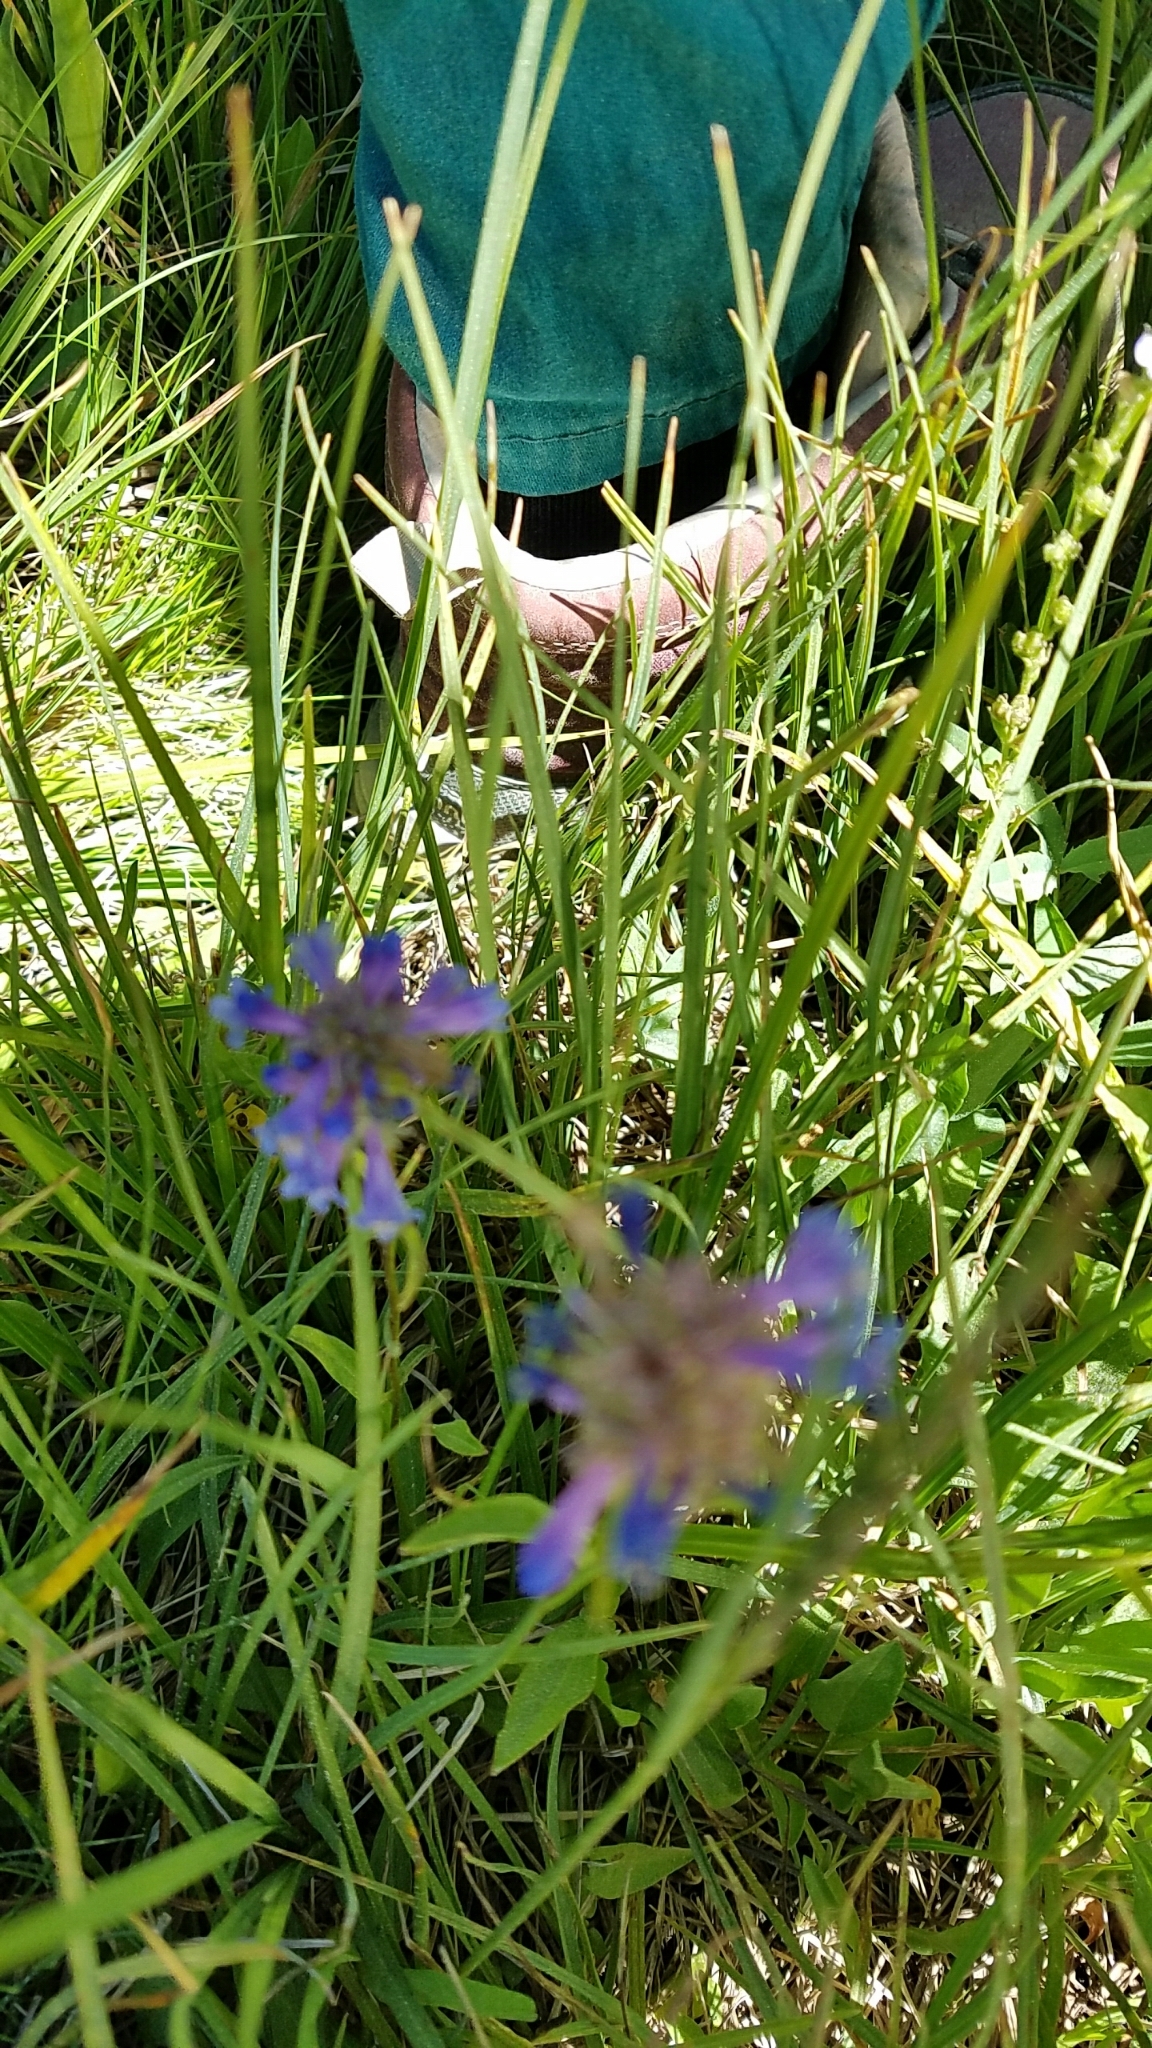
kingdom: Plantae
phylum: Tracheophyta
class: Magnoliopsida
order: Lamiales
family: Plantaginaceae
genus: Penstemon
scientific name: Penstemon rydbergii
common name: Rydberg's beardtongue
